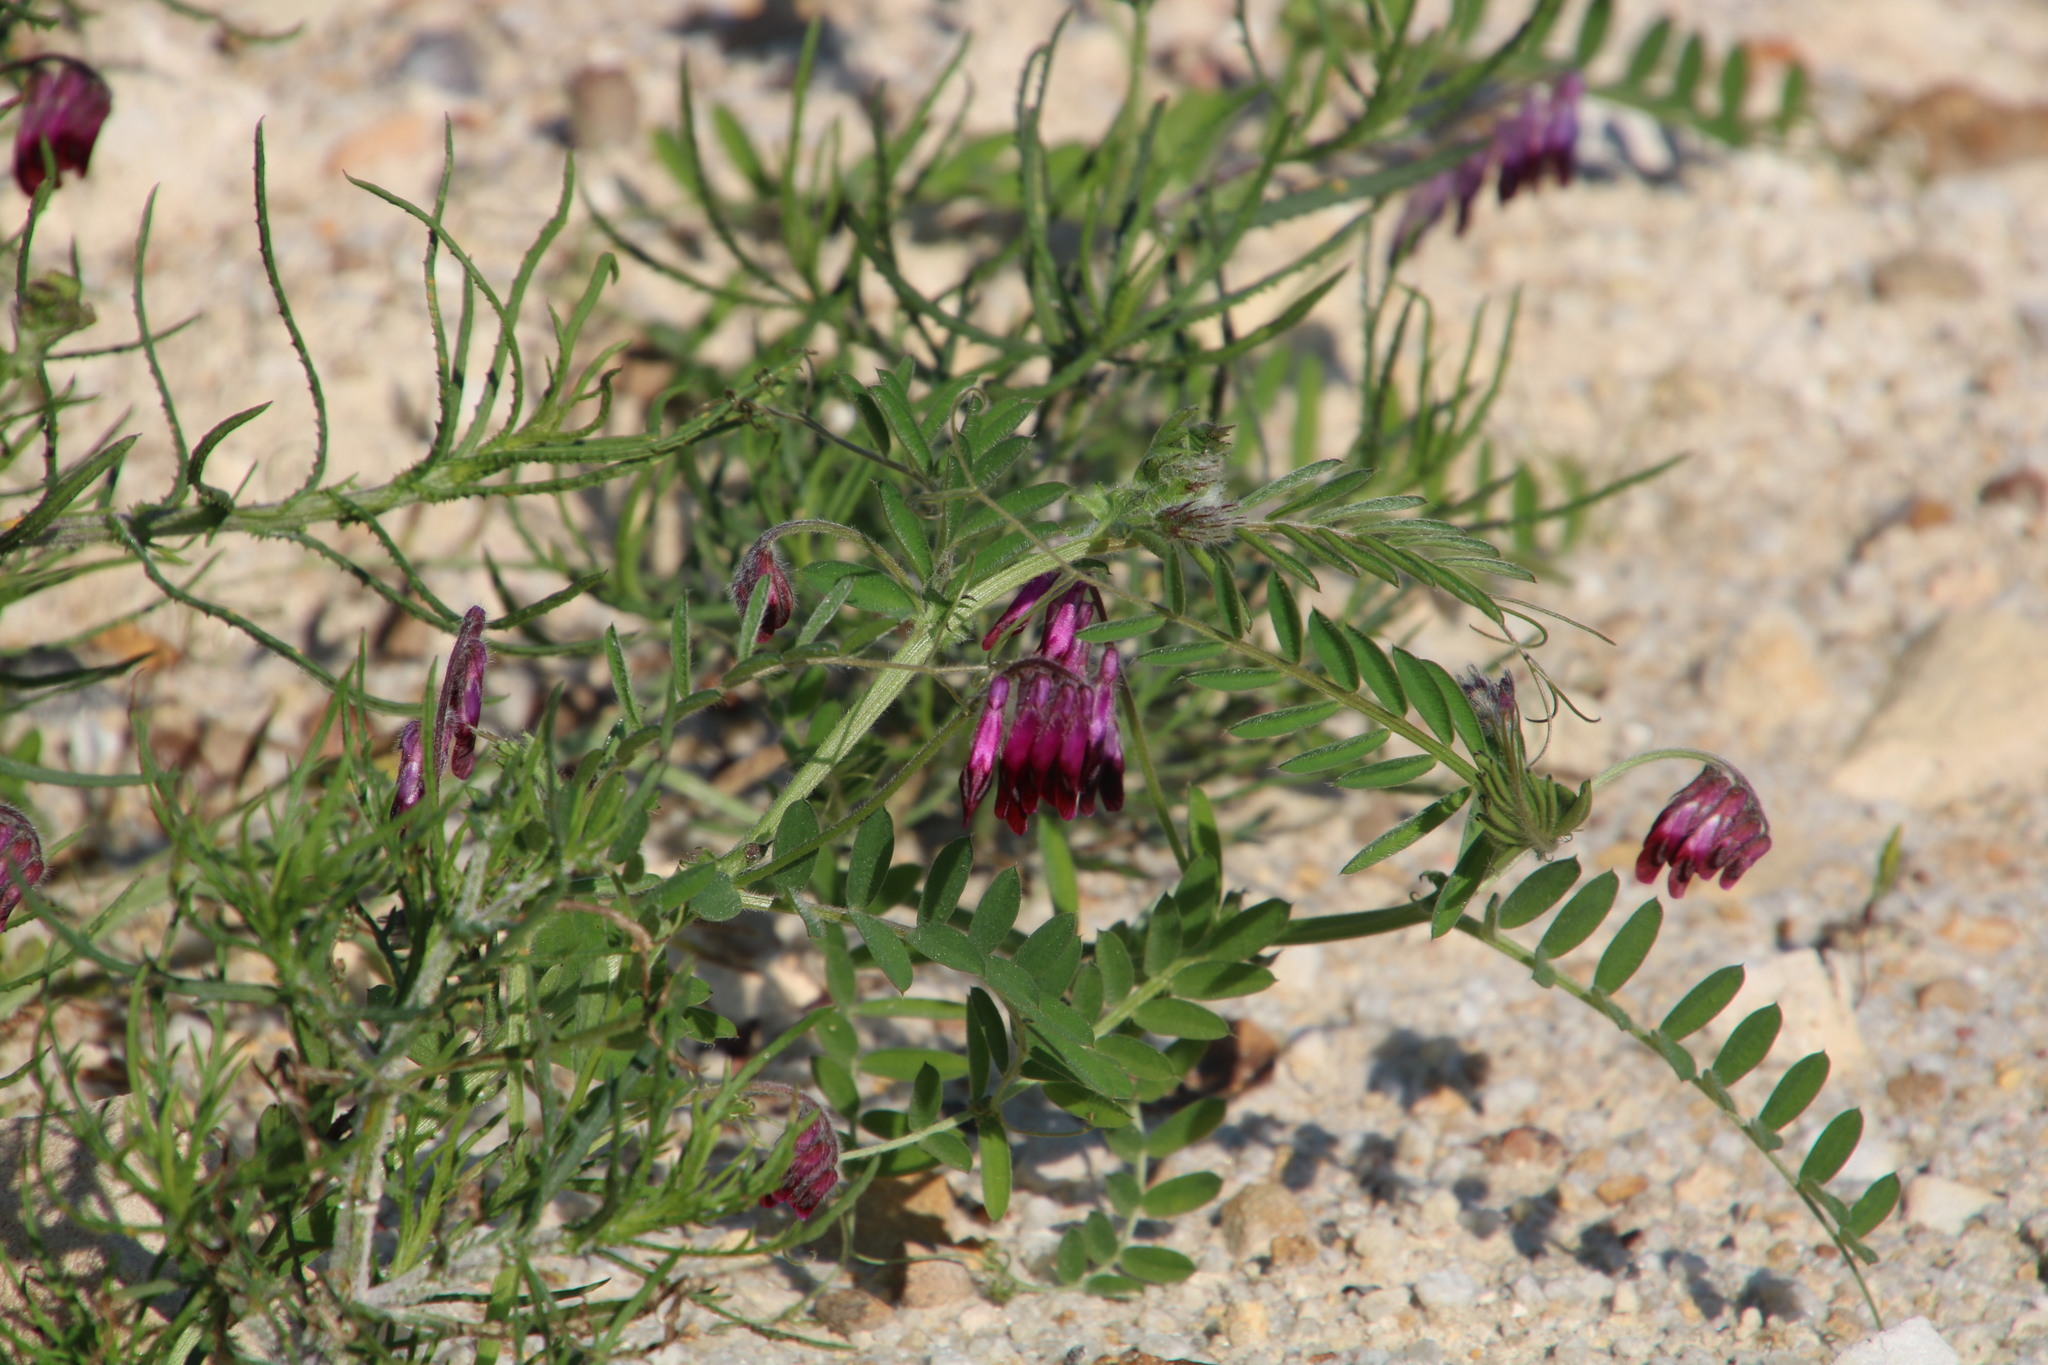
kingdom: Plantae
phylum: Tracheophyta
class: Magnoliopsida
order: Fabales
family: Fabaceae
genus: Vicia
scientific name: Vicia benghalensis
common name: Purple vetch
